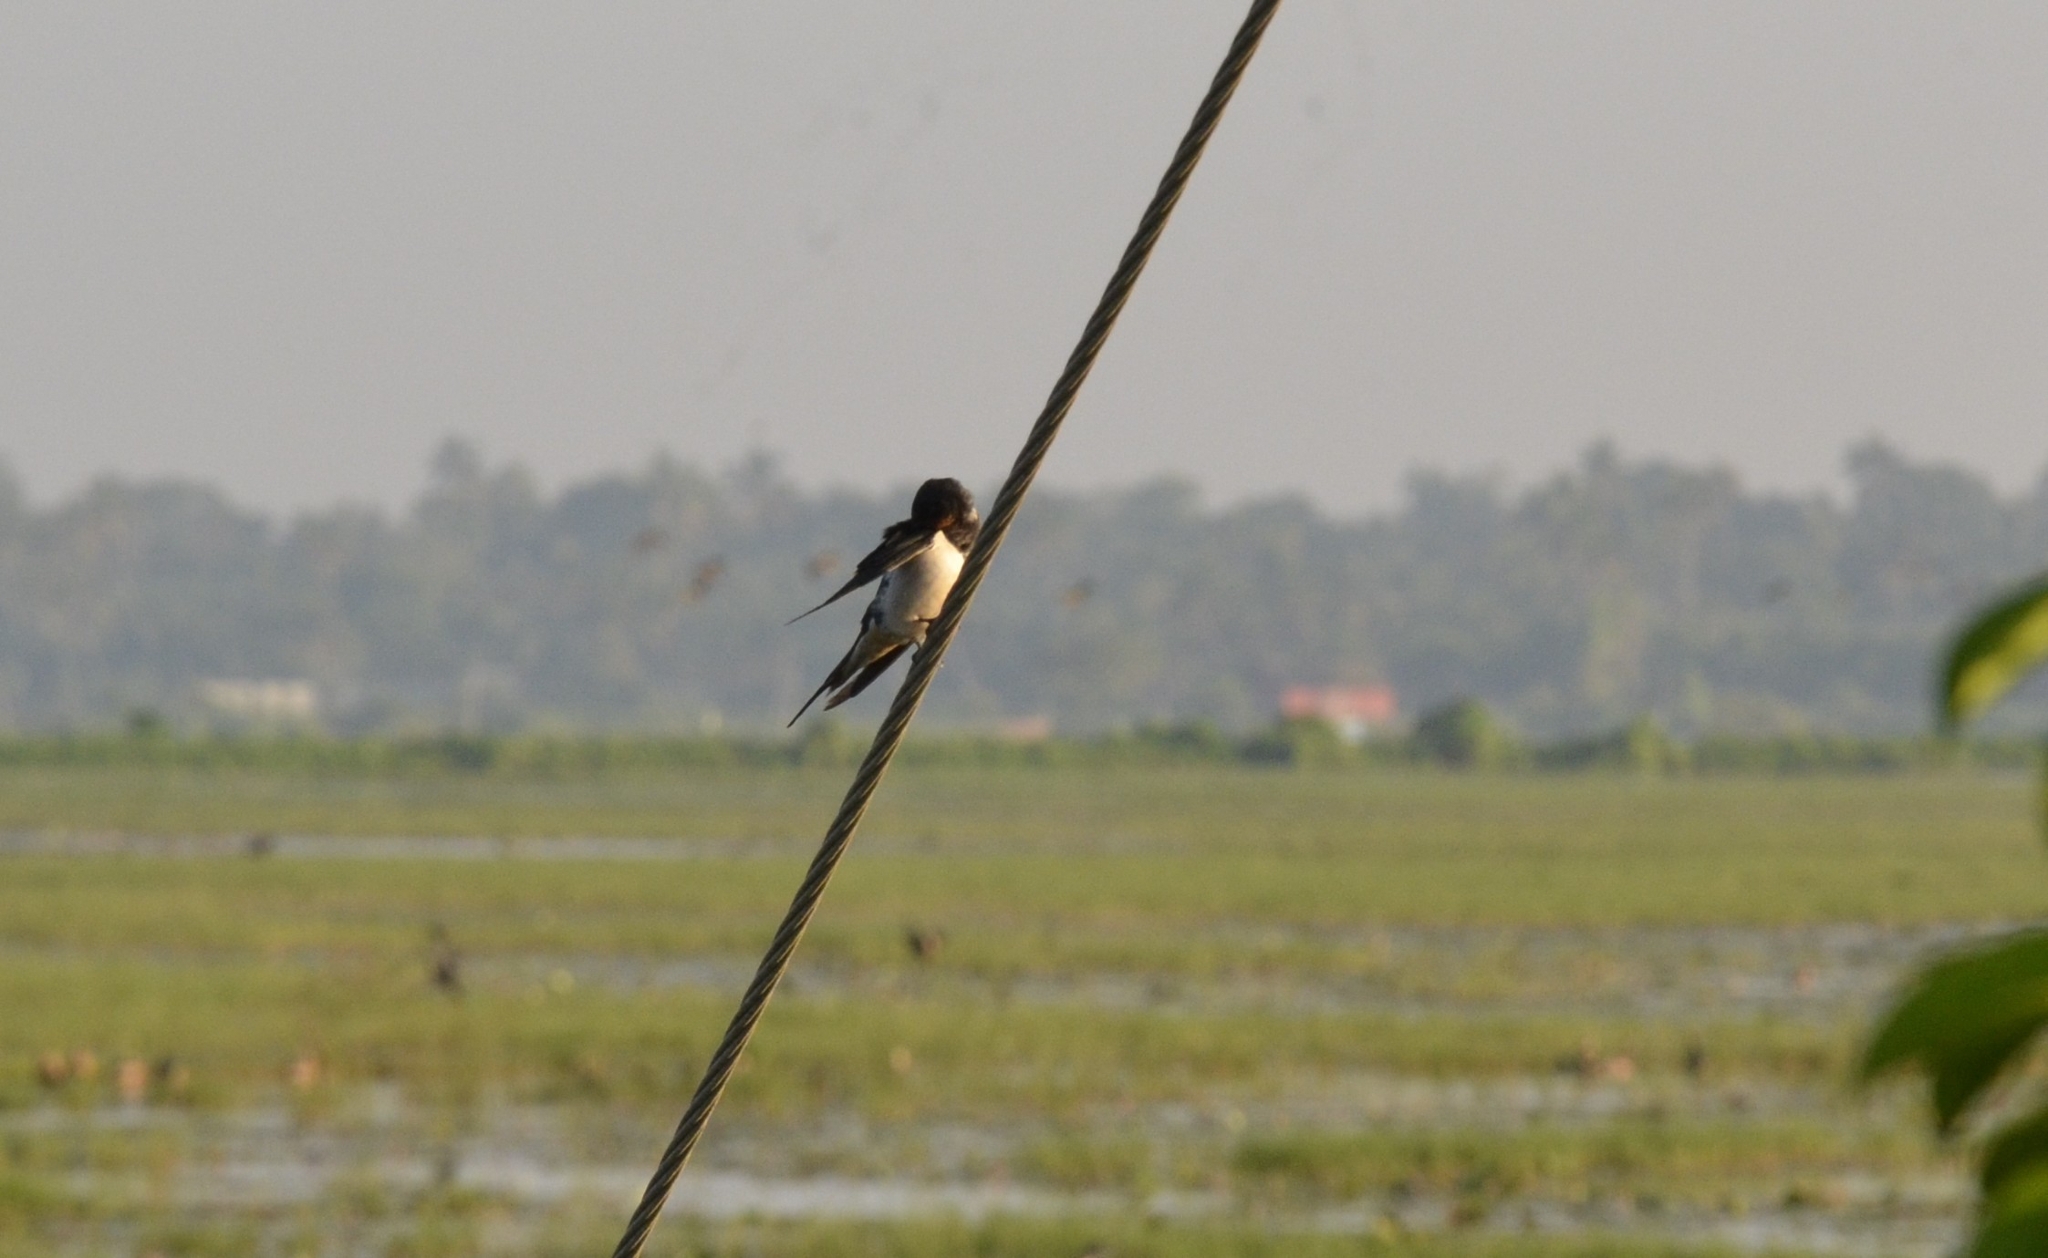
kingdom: Animalia
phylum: Chordata
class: Aves
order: Passeriformes
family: Hirundinidae
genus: Hirundo
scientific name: Hirundo rustica
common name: Barn swallow
